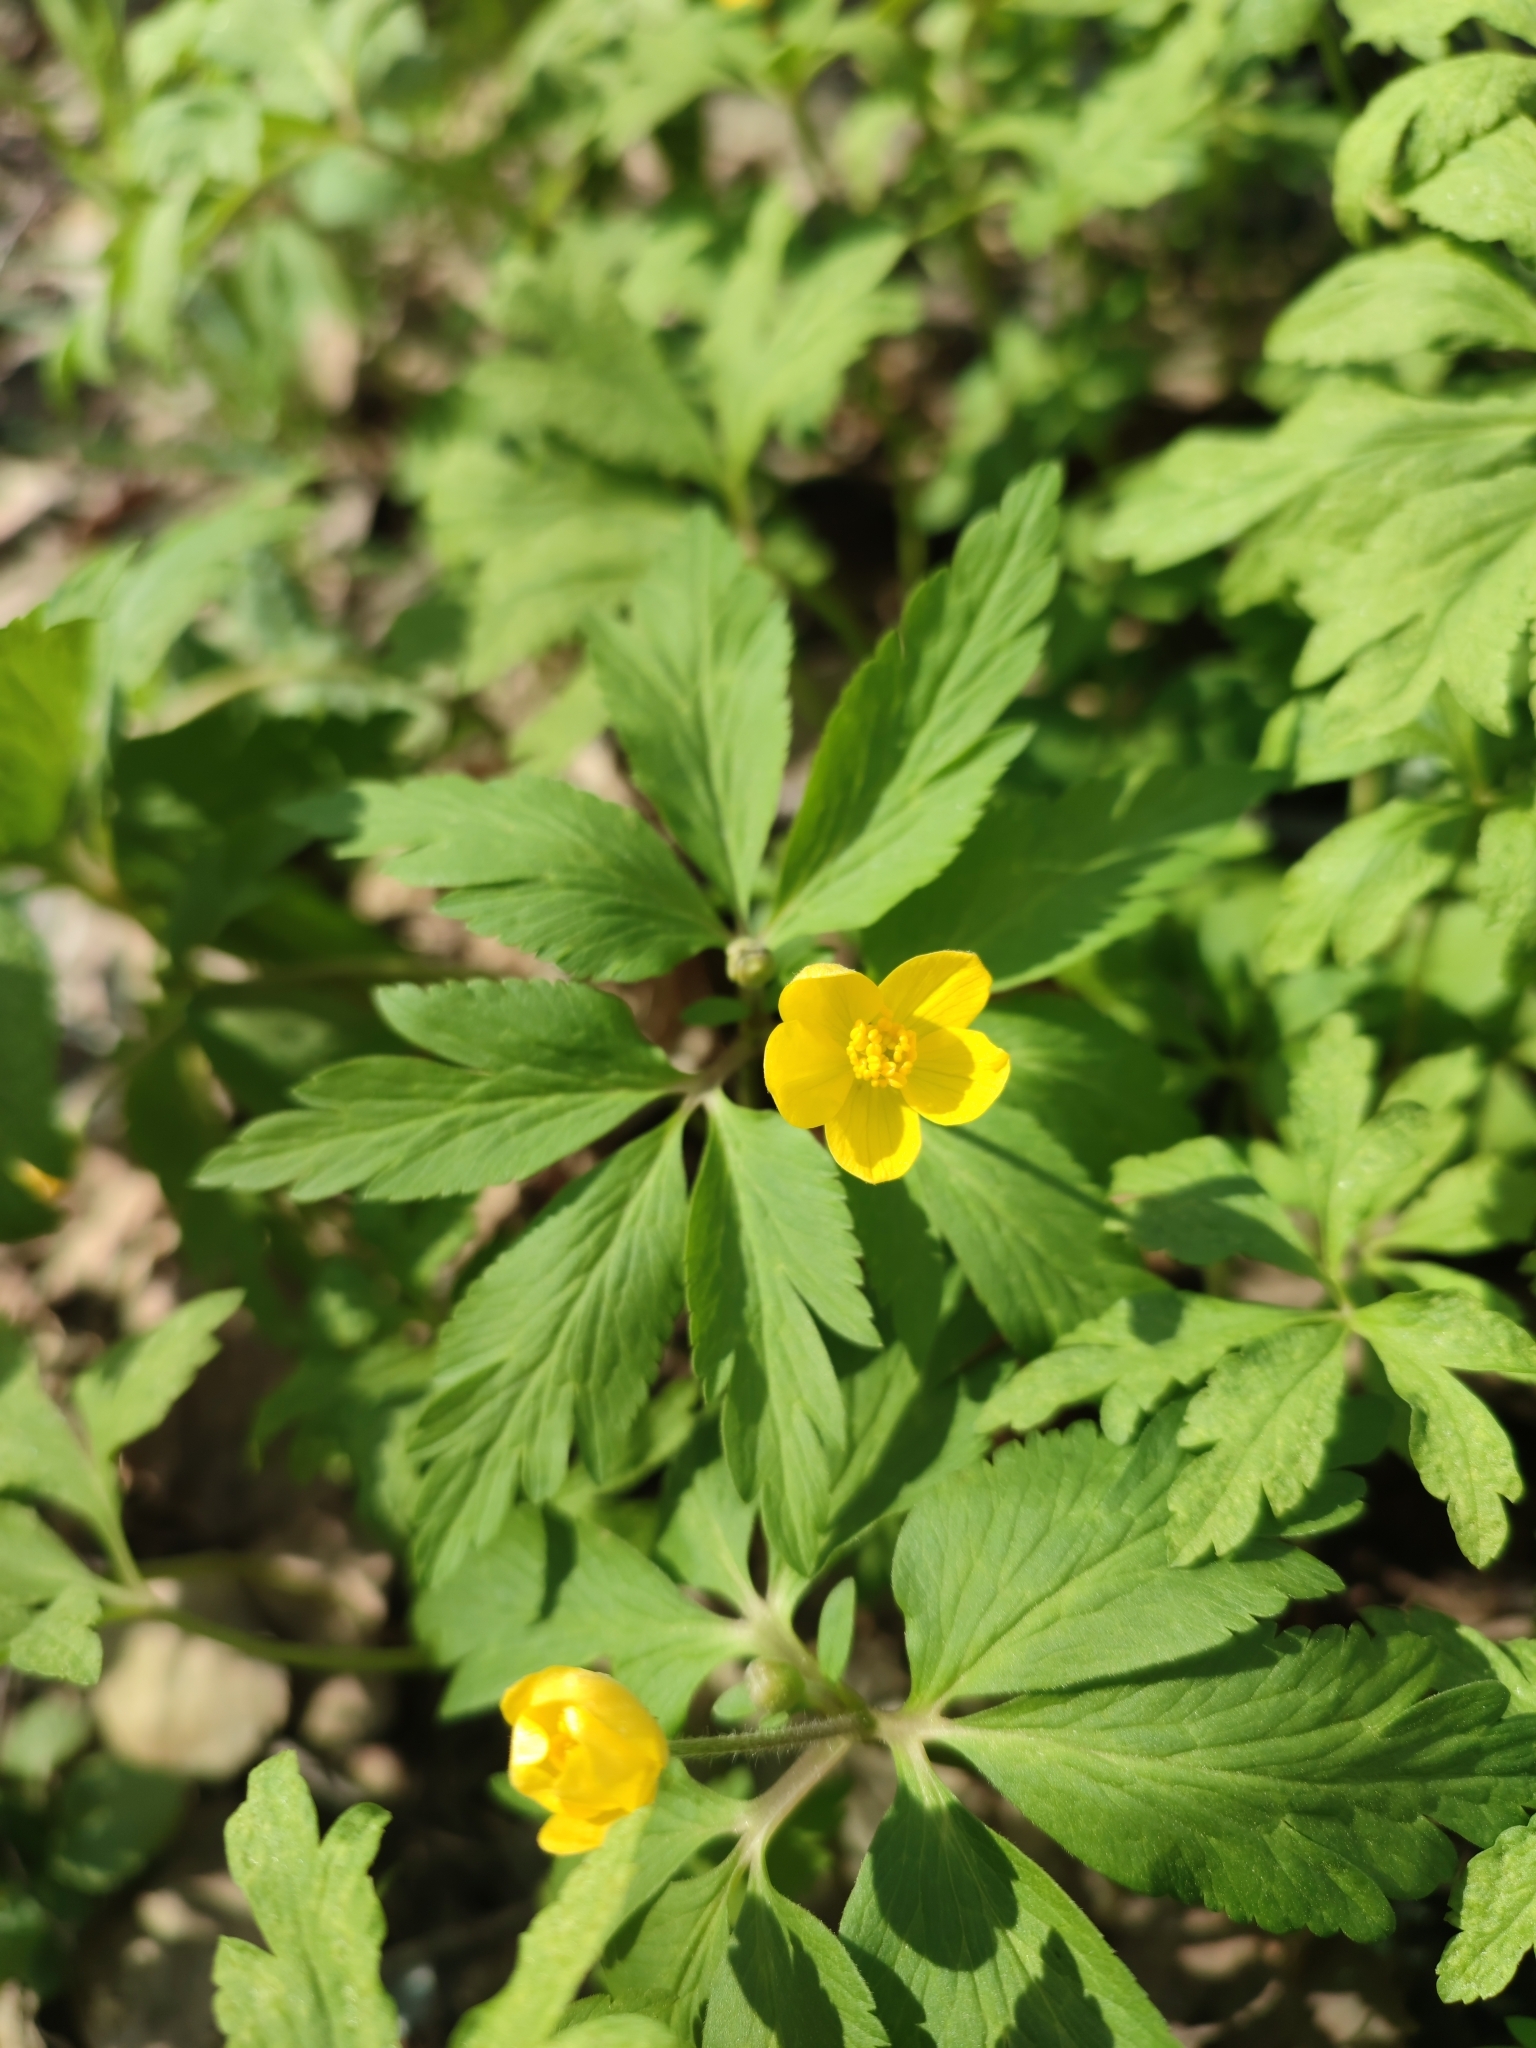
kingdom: Plantae
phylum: Tracheophyta
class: Magnoliopsida
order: Ranunculales
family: Ranunculaceae
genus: Anemone
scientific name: Anemone ranunculoides
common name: Yellow anemone
